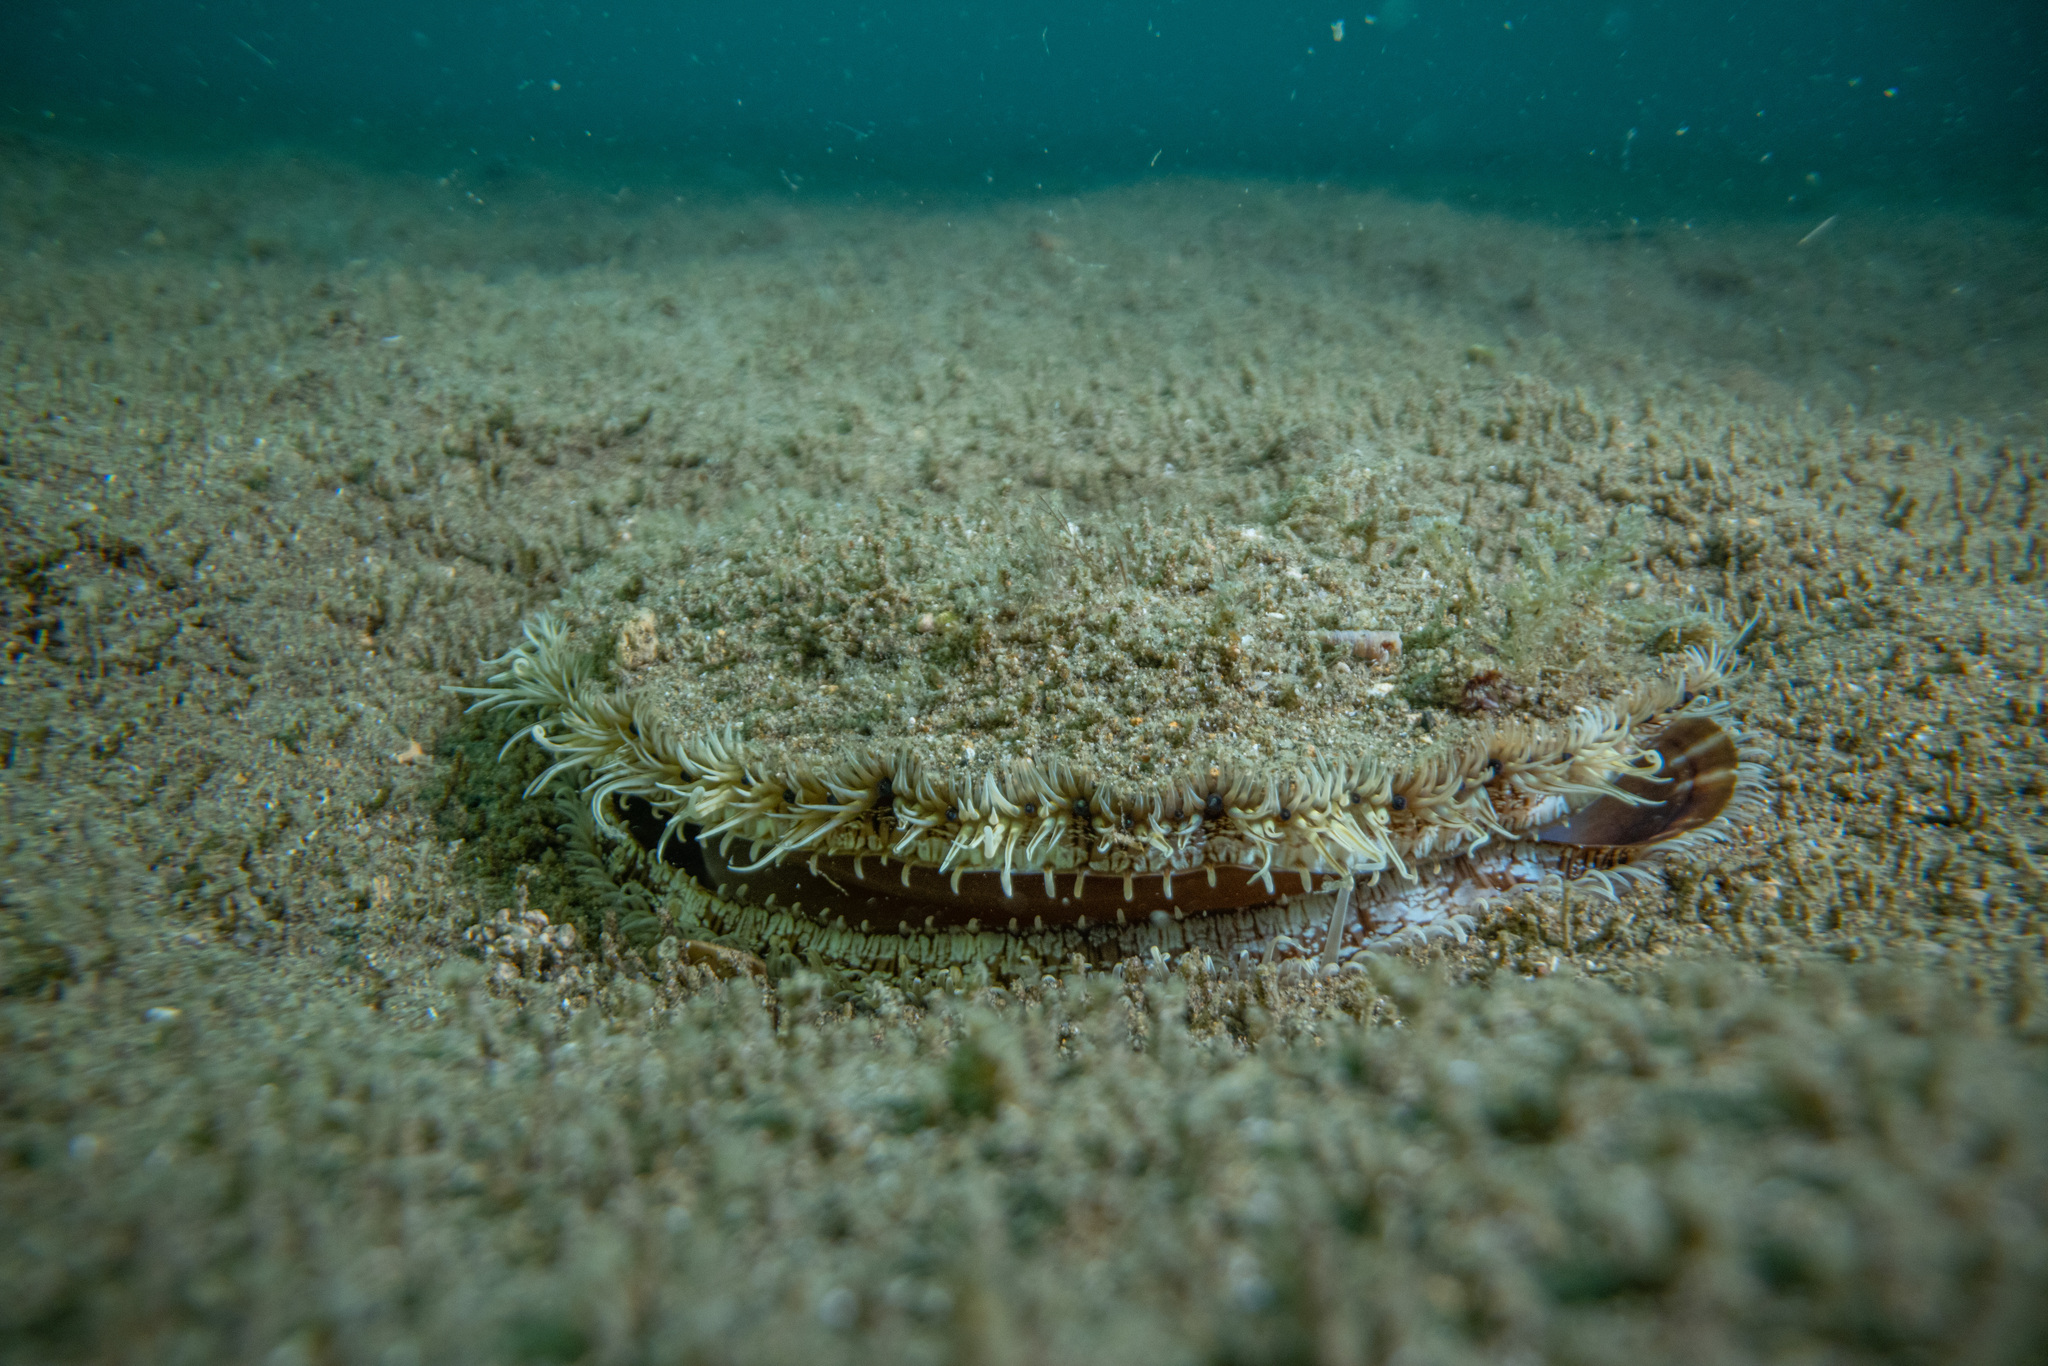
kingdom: Animalia
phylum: Mollusca
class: Bivalvia
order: Pectinida
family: Pectinidae
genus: Pecten
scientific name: Pecten novaezelandiae
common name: New zealand scallop
